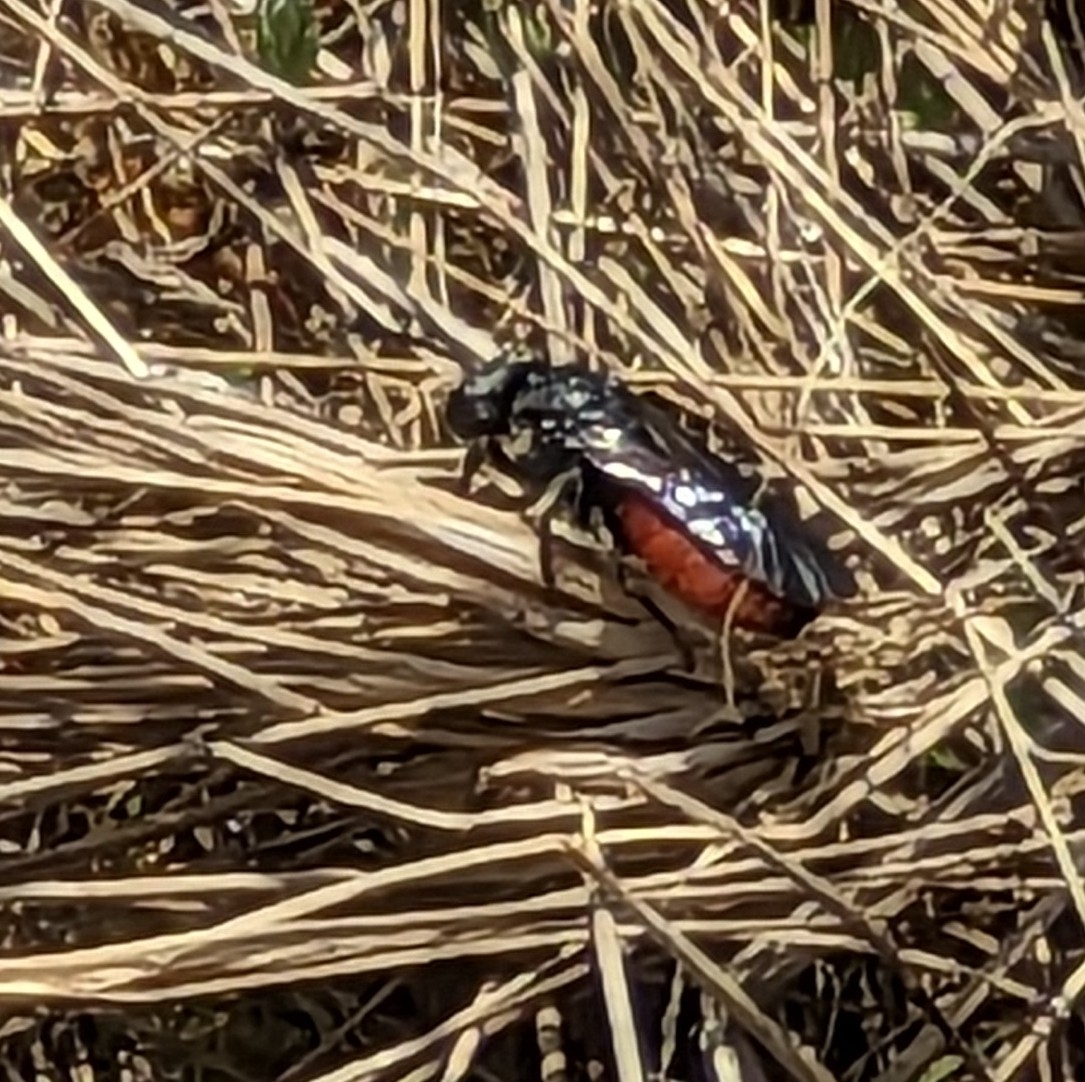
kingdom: Animalia
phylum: Arthropoda
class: Insecta
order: Hymenoptera
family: Halictidae
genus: Sphecodes
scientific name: Sphecodes albilabris
